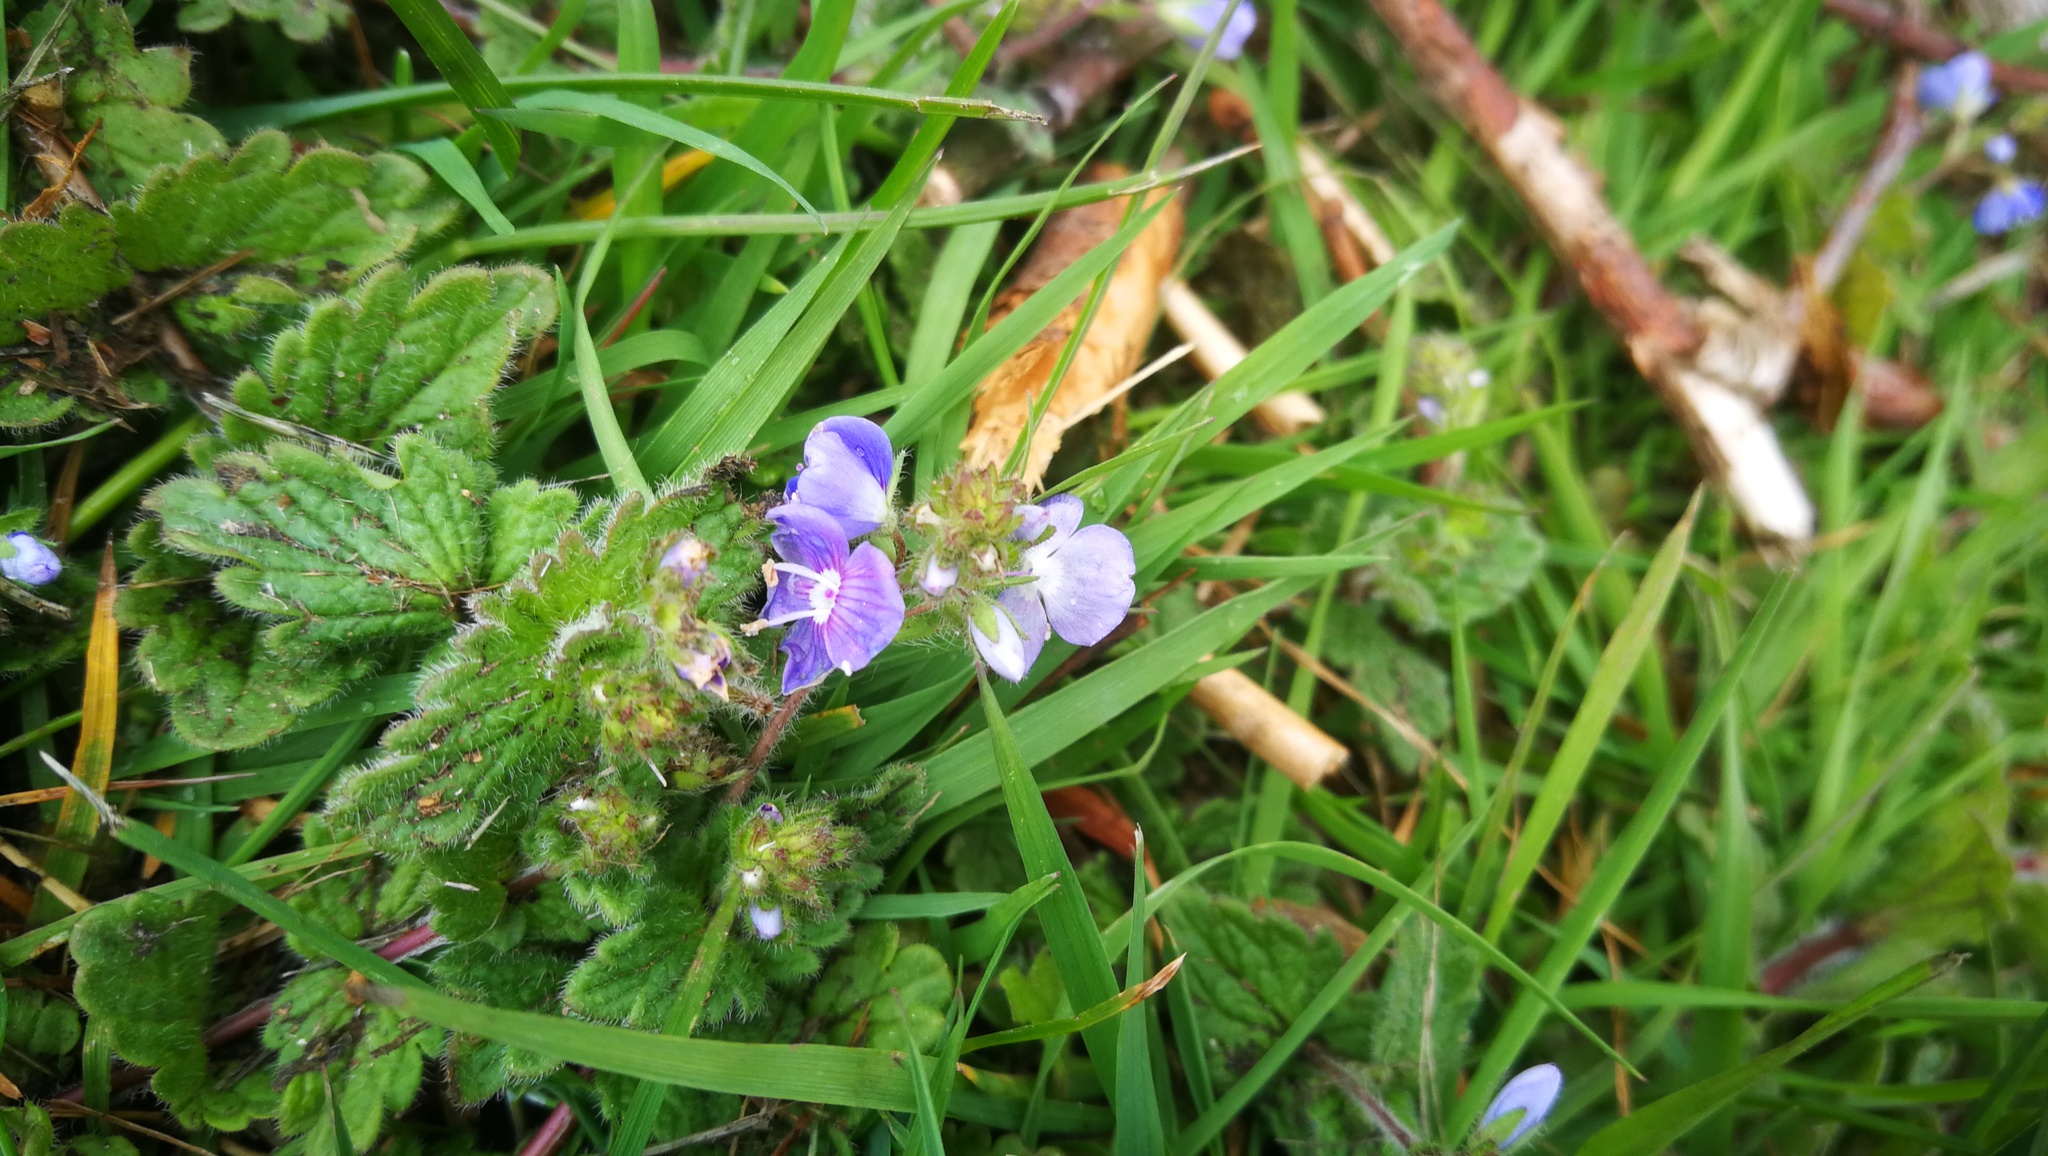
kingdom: Plantae
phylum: Tracheophyta
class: Magnoliopsida
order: Lamiales
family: Plantaginaceae
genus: Veronica
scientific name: Veronica chamaedrys
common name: Germander speedwell
